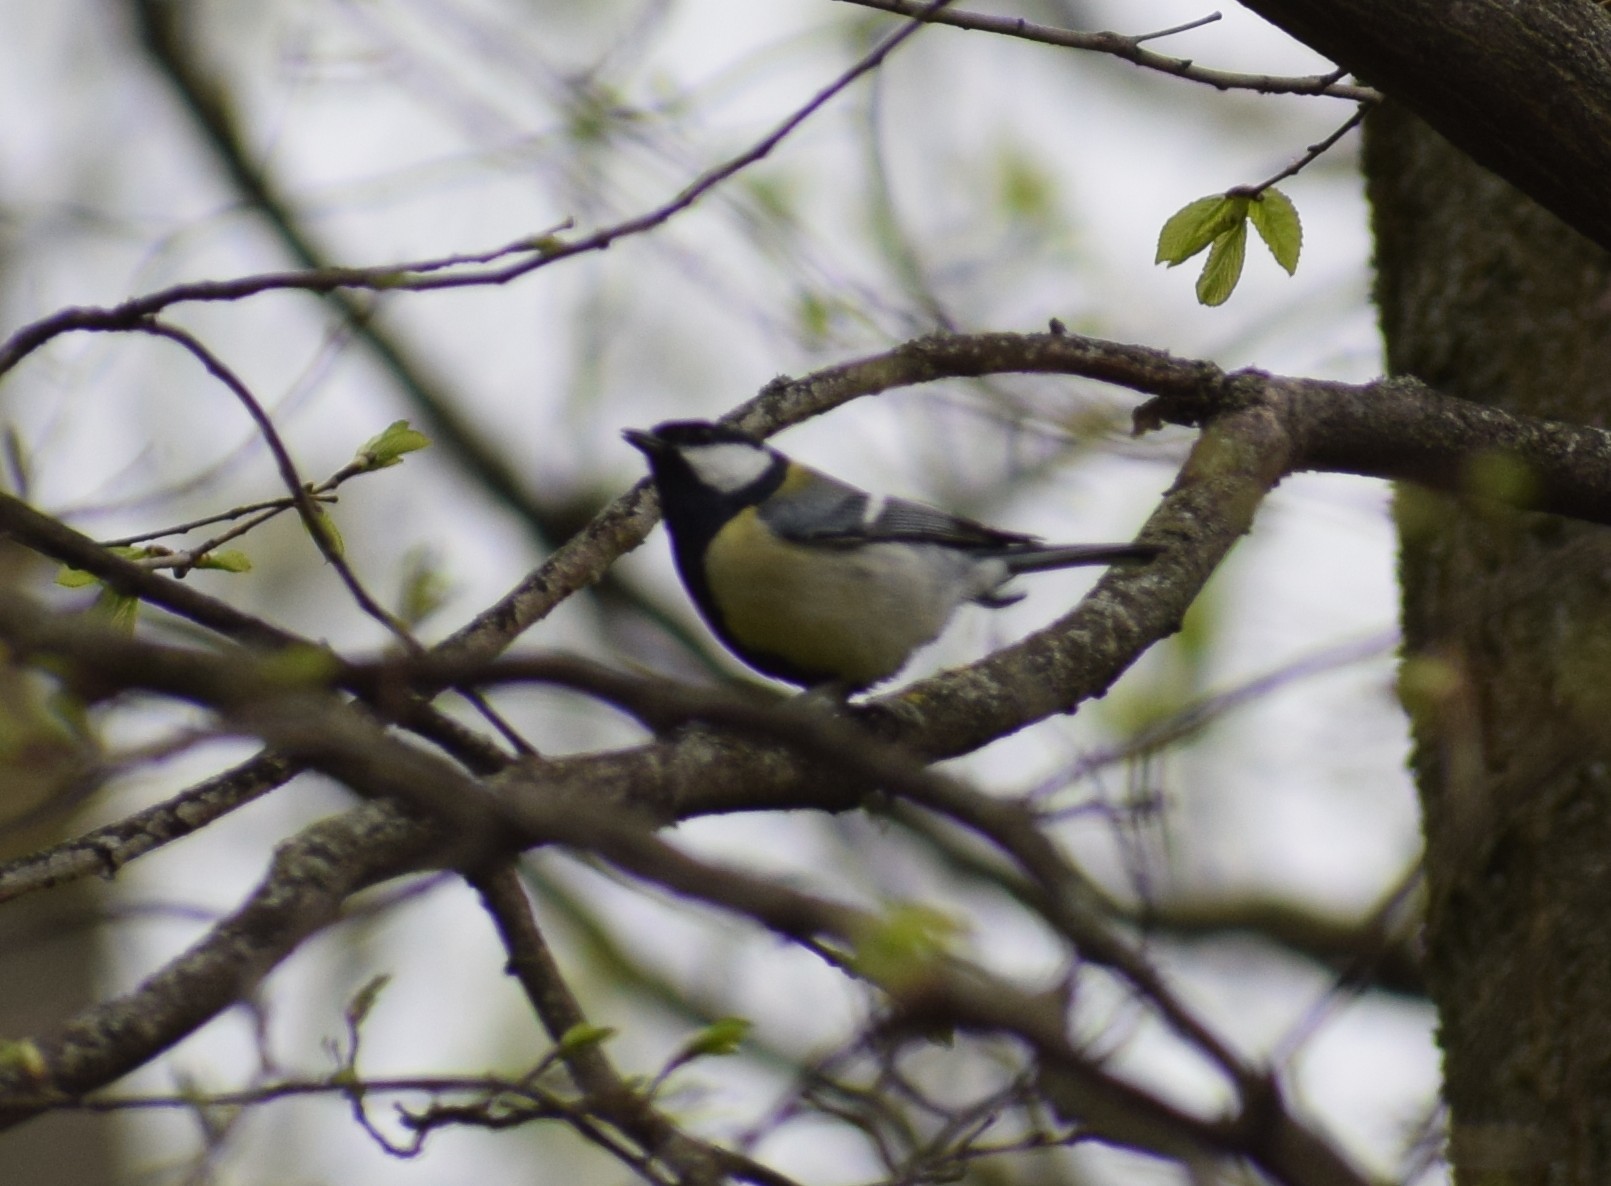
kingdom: Animalia
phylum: Chordata
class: Aves
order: Passeriformes
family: Paridae
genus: Parus
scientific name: Parus major
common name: Great tit
